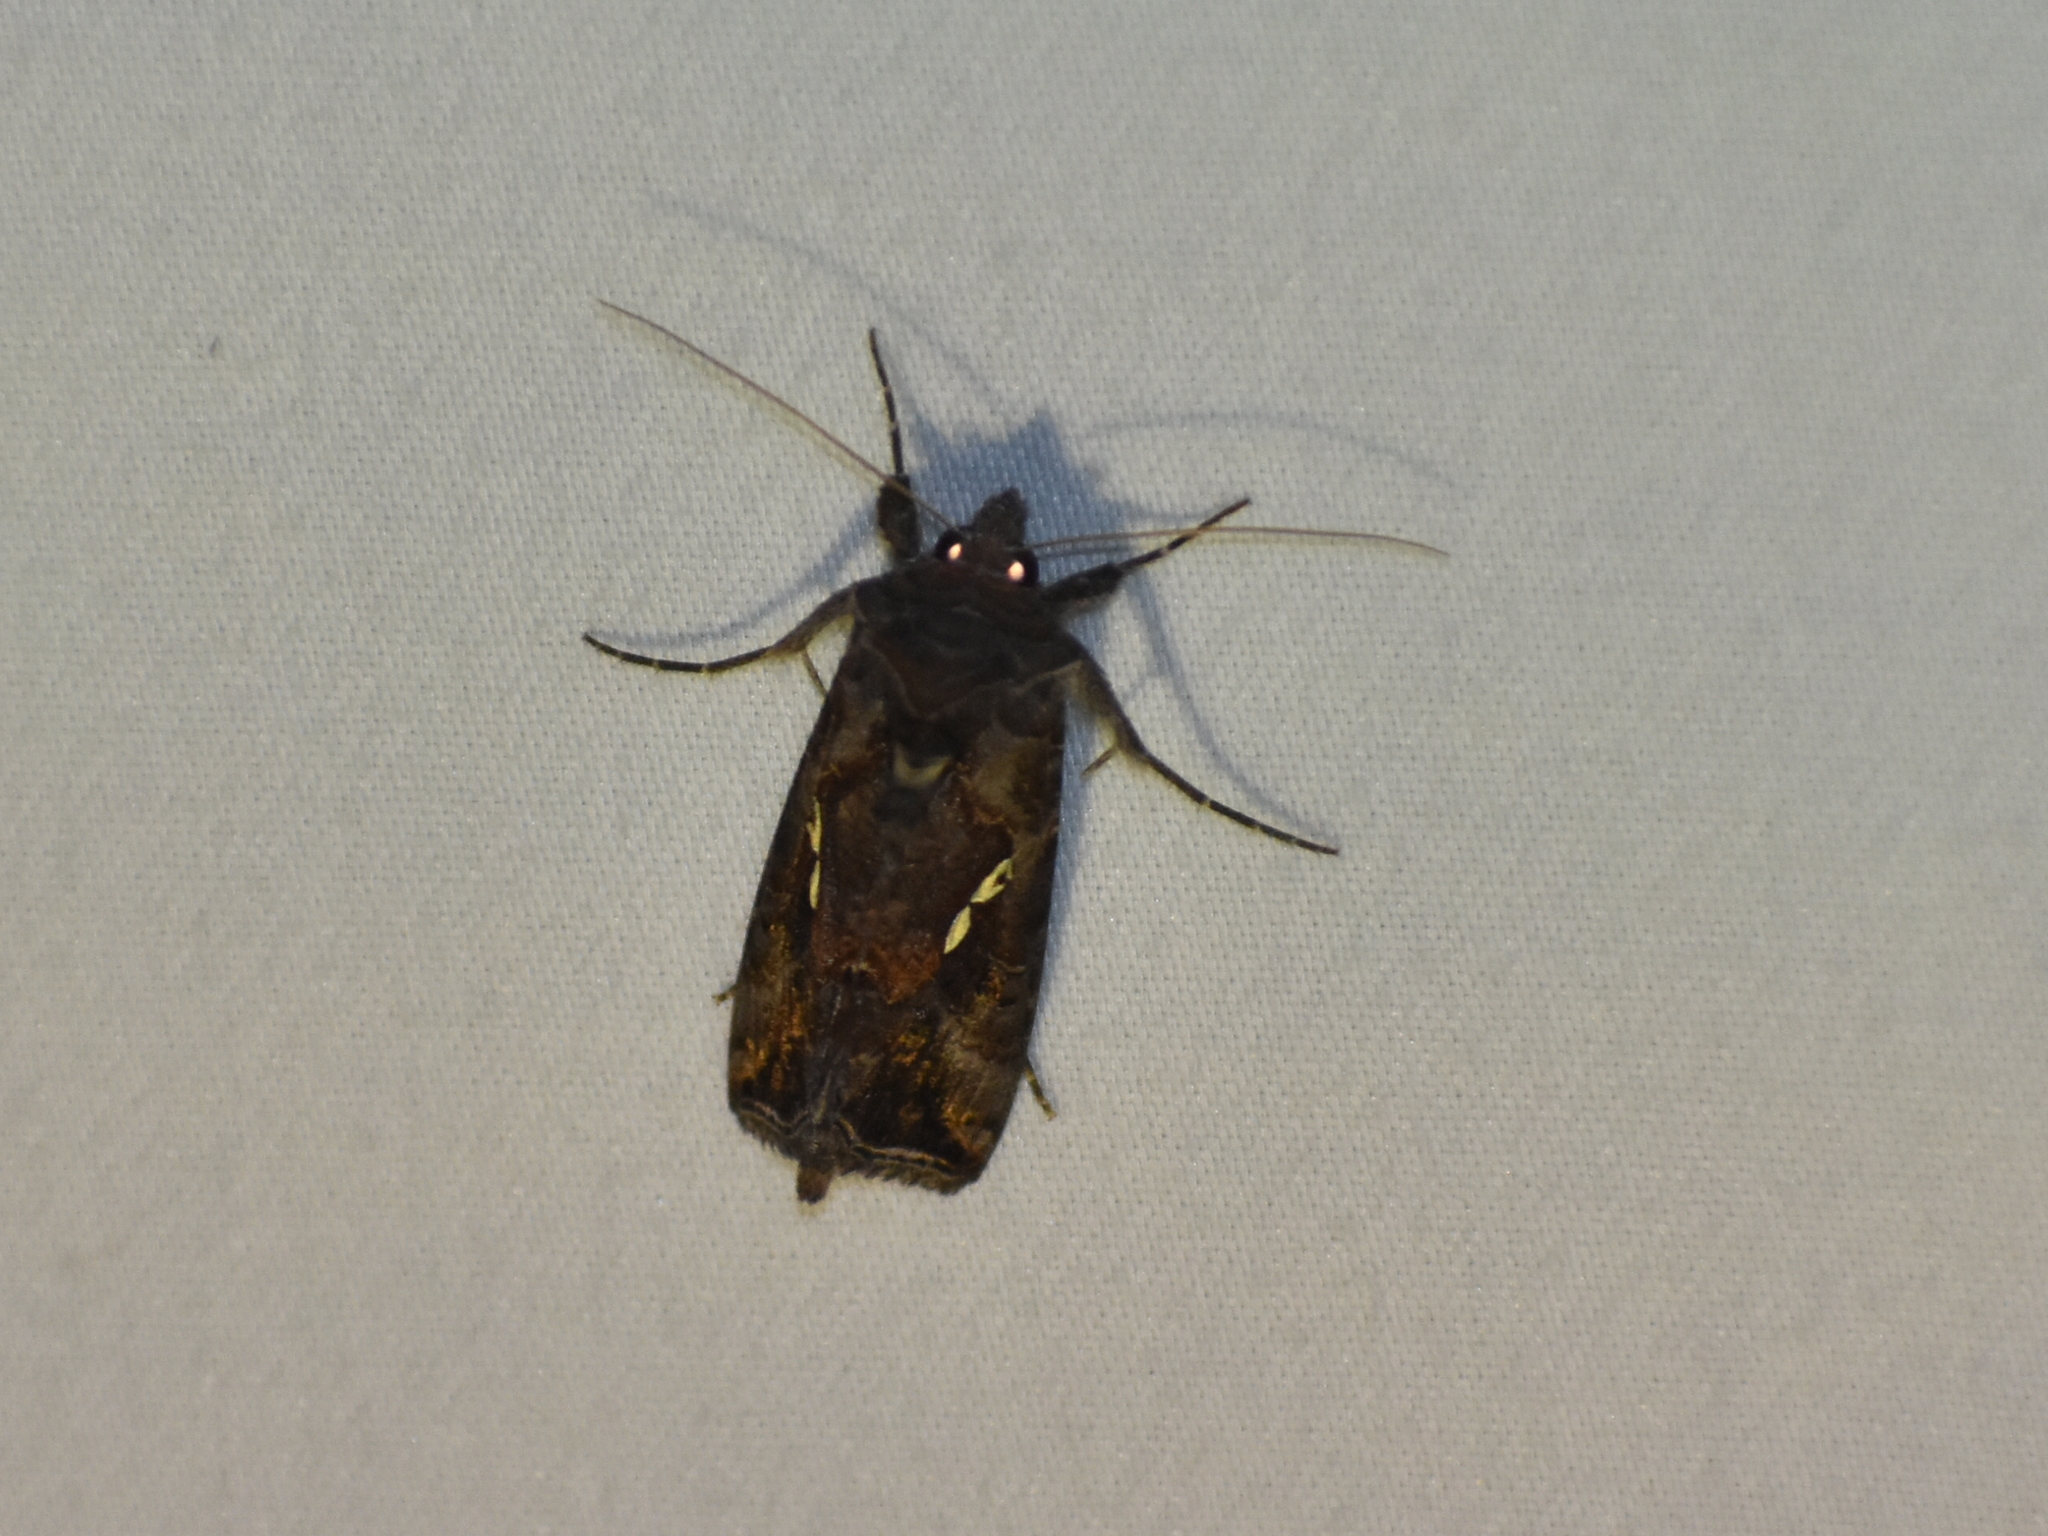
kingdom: Animalia
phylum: Arthropoda
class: Insecta
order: Lepidoptera
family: Noctuidae
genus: Autographa
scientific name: Autographa precationis
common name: Common looper moth
